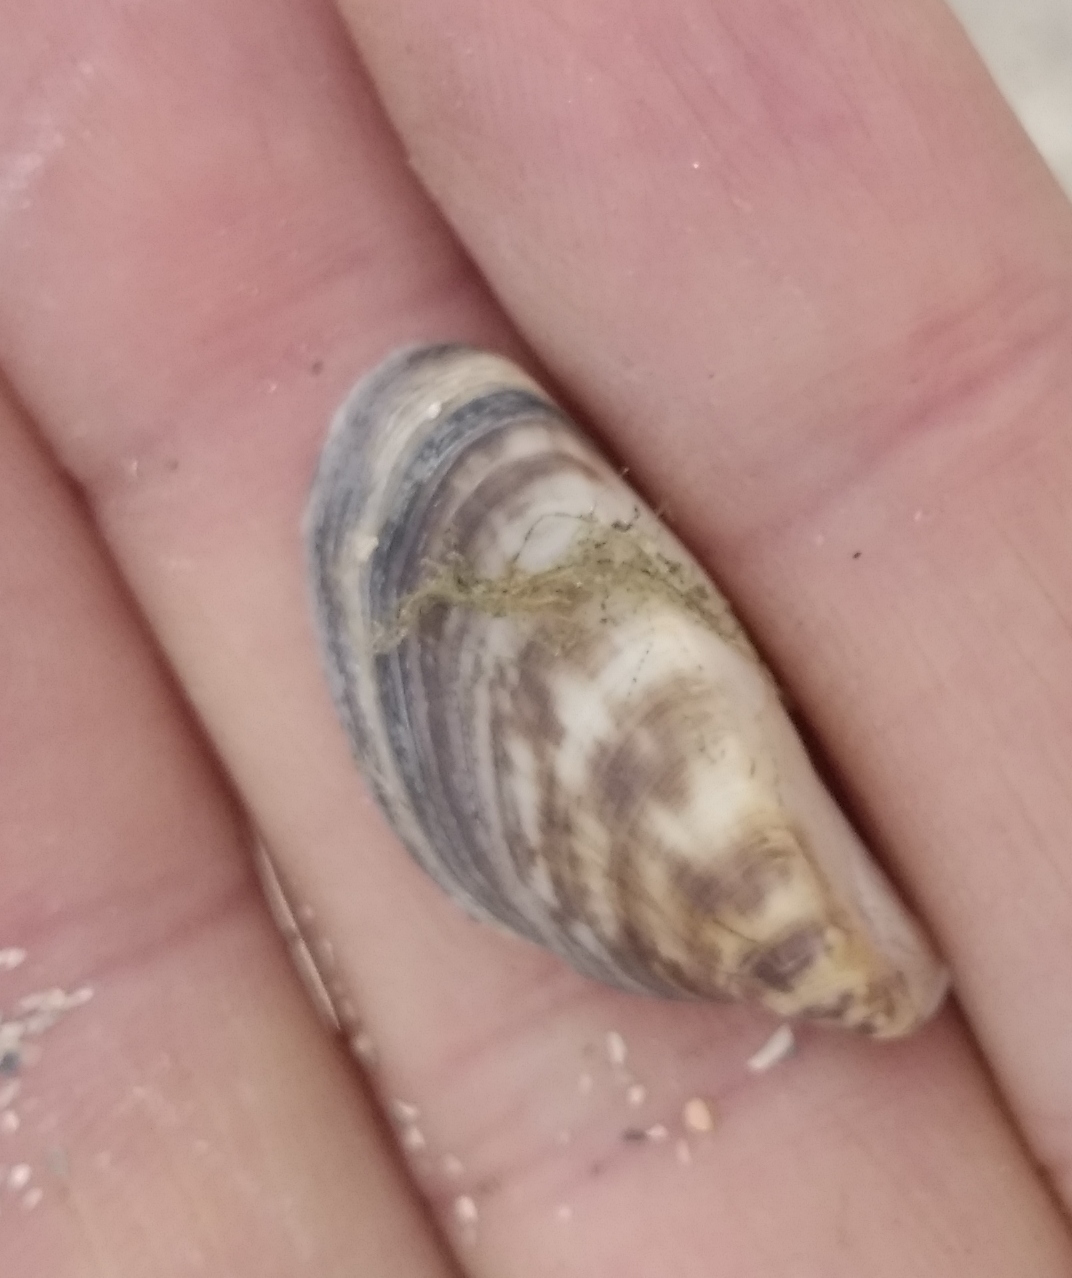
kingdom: Animalia
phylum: Mollusca
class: Bivalvia
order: Myida
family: Dreissenidae
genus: Dreissena
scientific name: Dreissena polymorpha
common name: Zebra mussel
